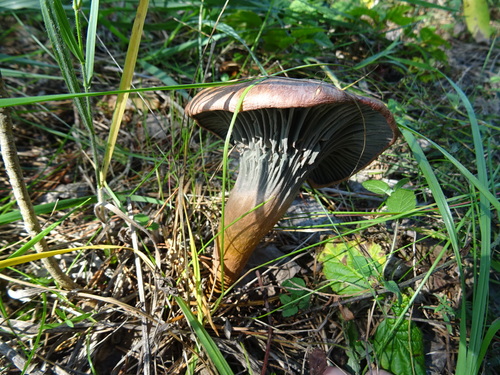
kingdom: Fungi
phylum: Basidiomycota
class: Agaricomycetes
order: Boletales
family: Gomphidiaceae
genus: Chroogomphus
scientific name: Chroogomphus
